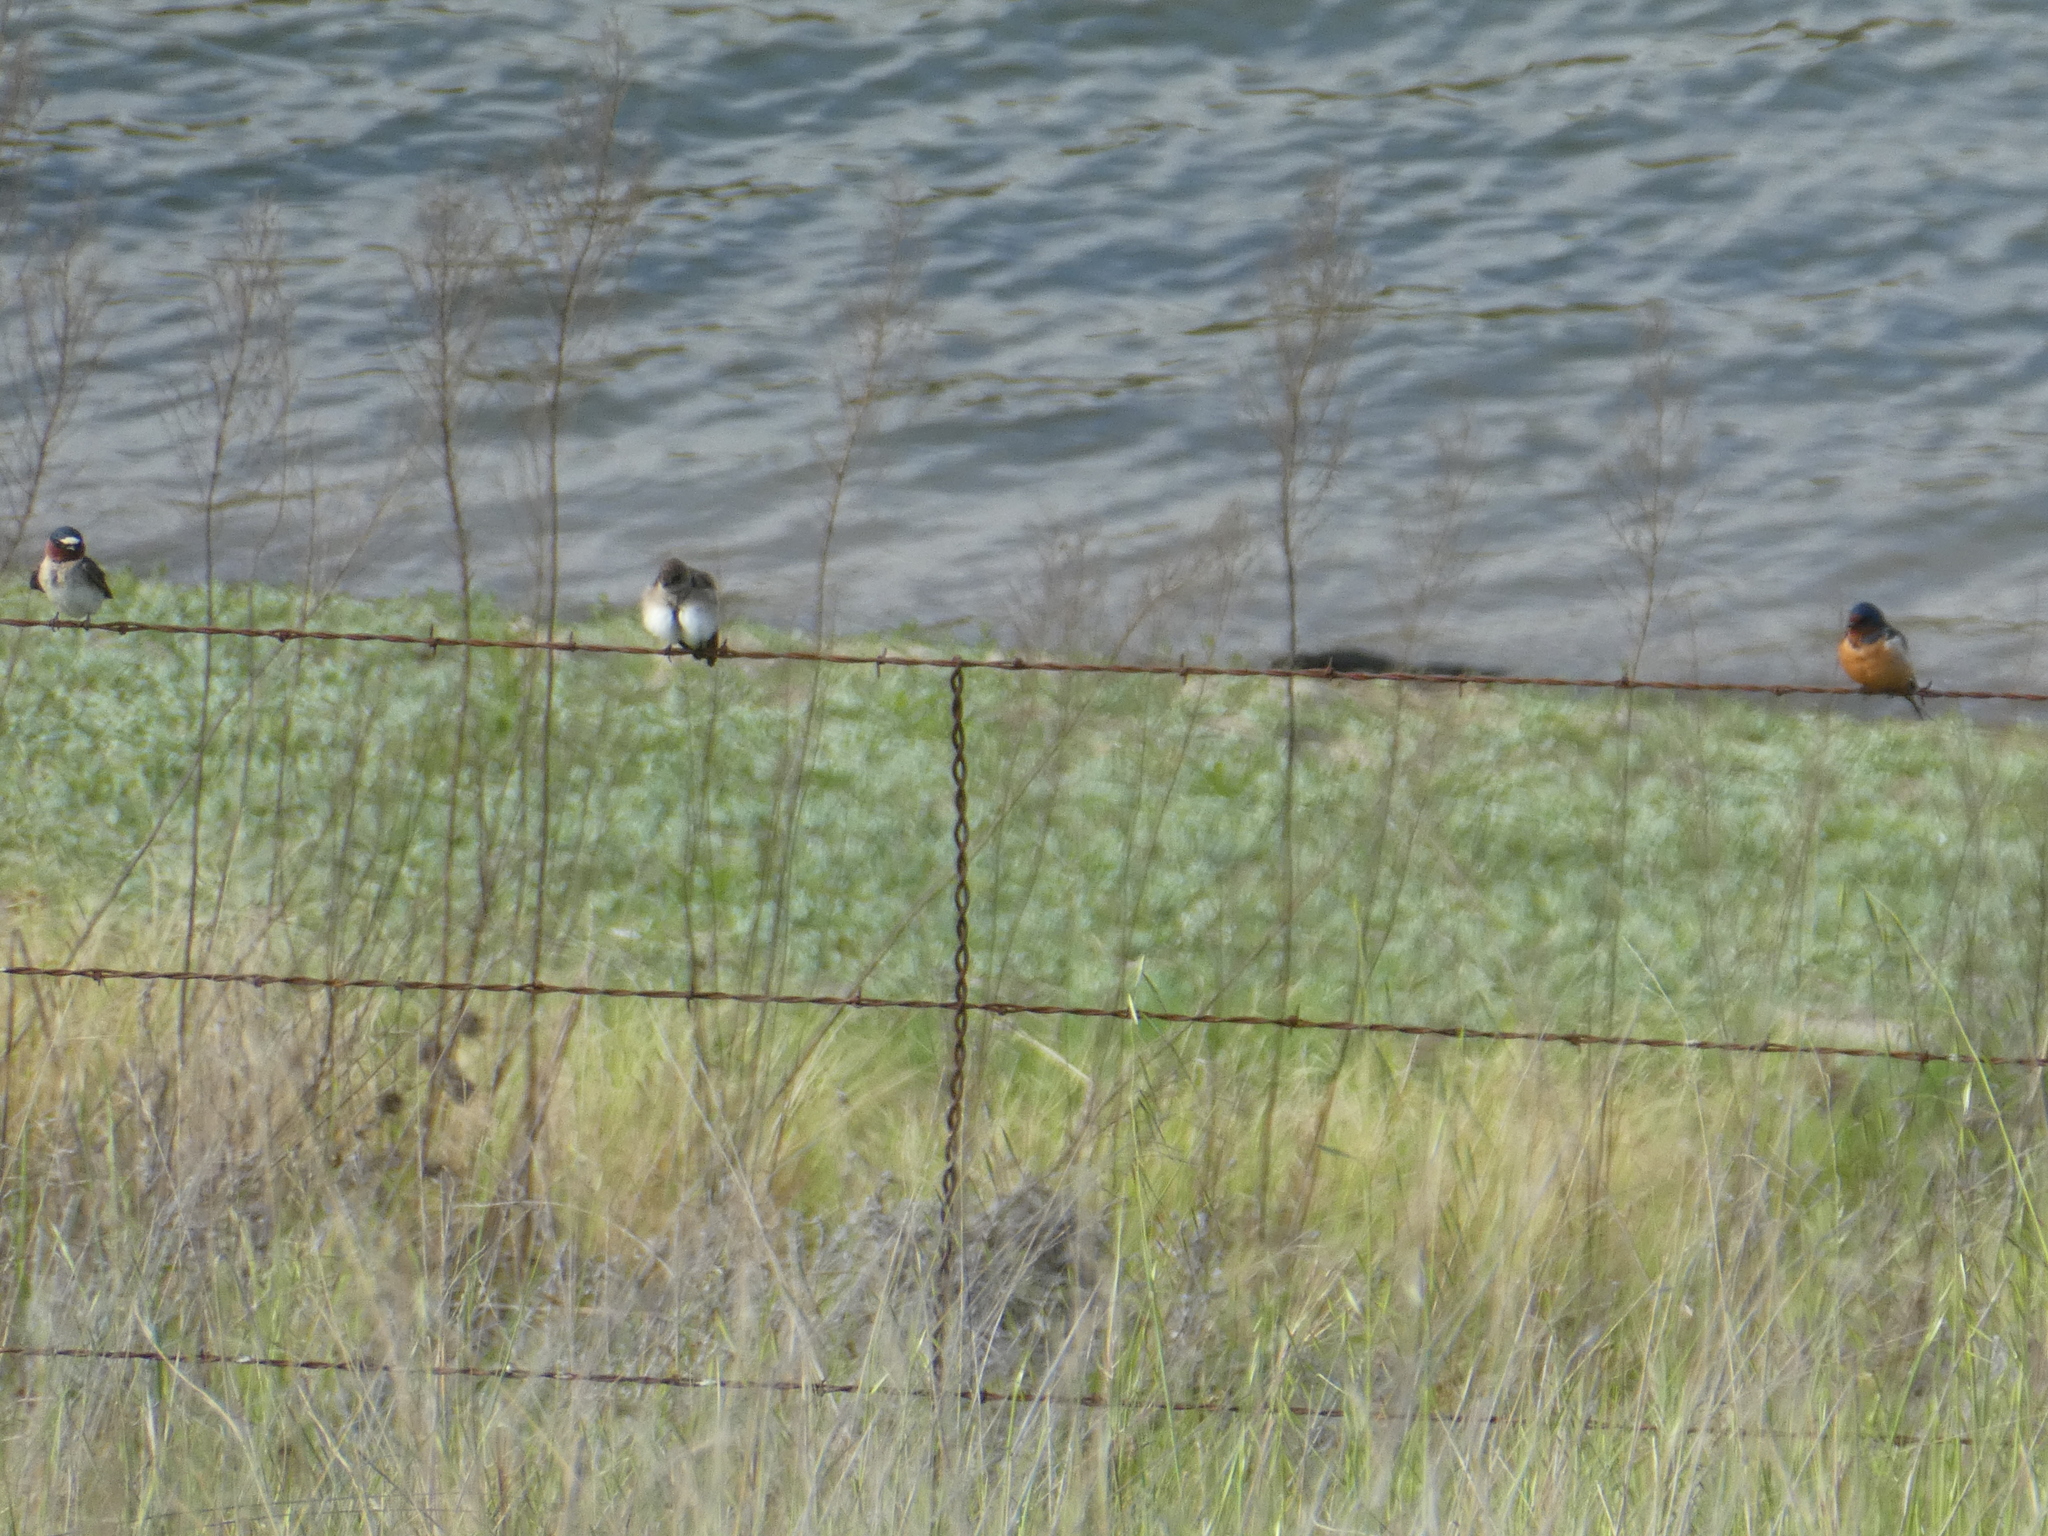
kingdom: Animalia
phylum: Chordata
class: Aves
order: Passeriformes
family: Hirundinidae
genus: Hirundo
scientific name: Hirundo rustica
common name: Barn swallow
